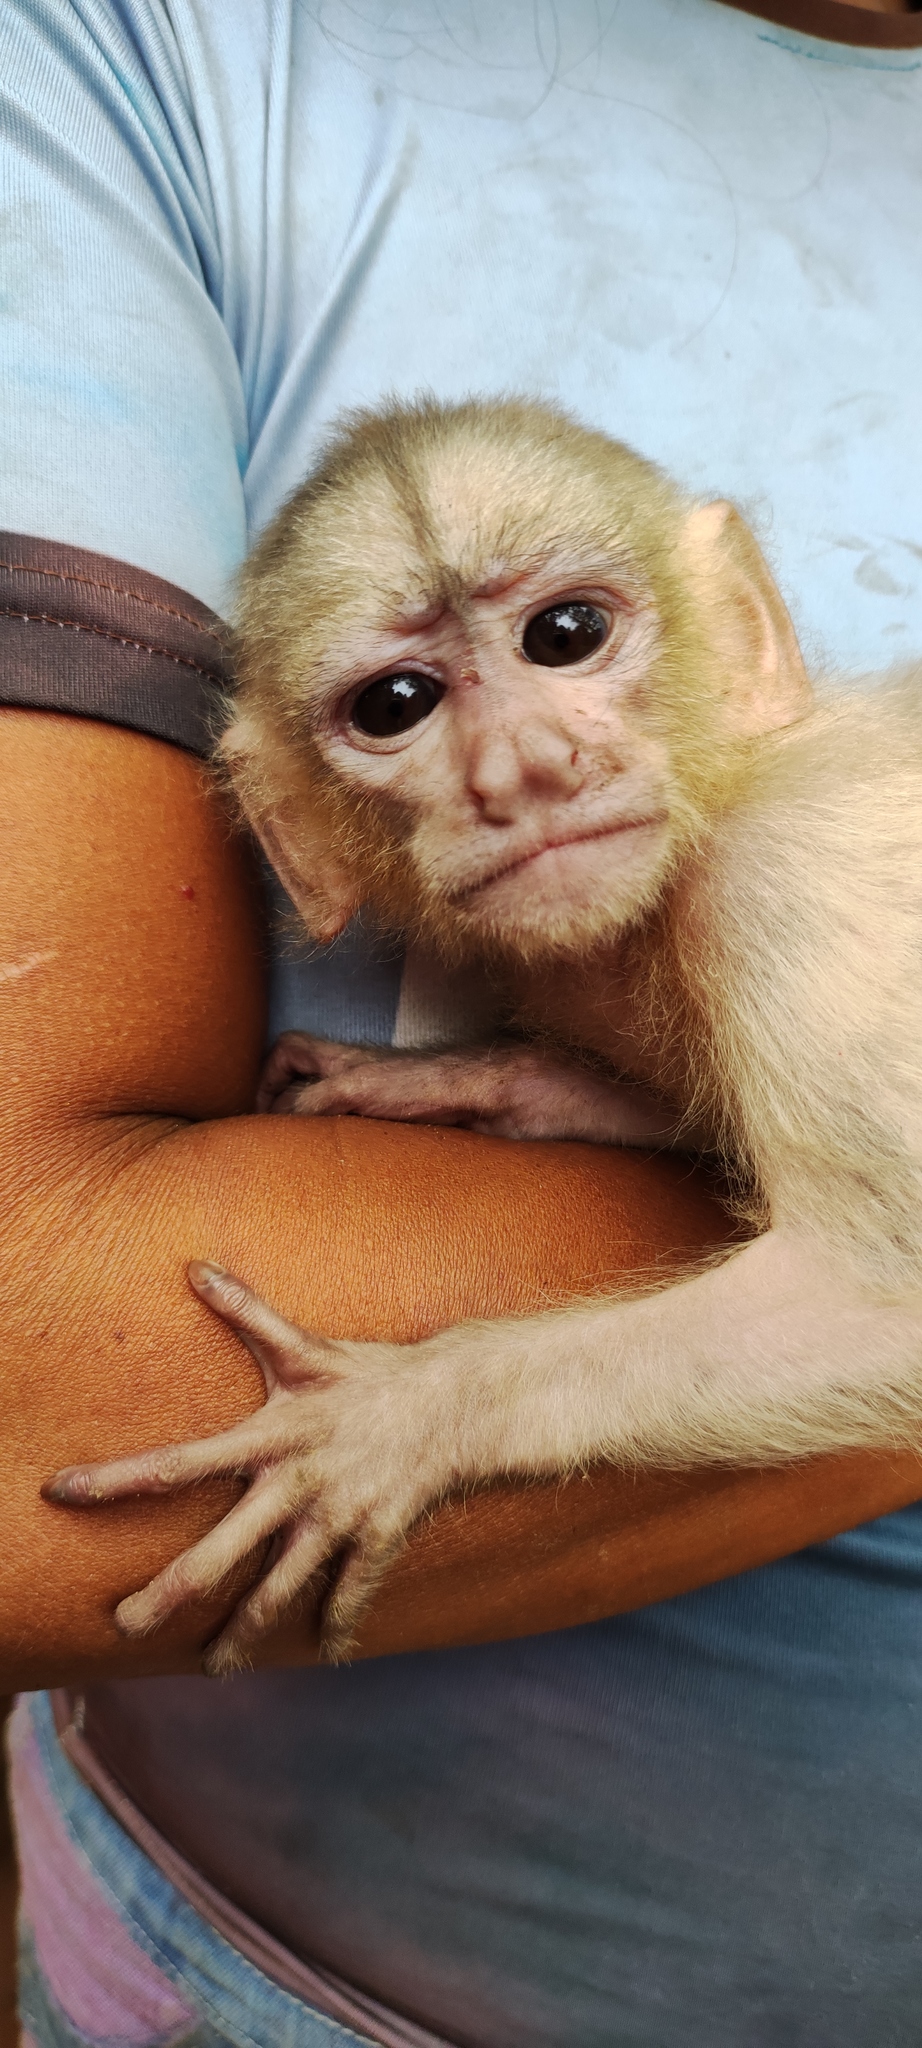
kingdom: Animalia
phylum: Chordata
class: Mammalia
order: Primates
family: Cebidae
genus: Cebus
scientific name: Cebus yuracus
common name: Peruvian white-fronted capuchin
